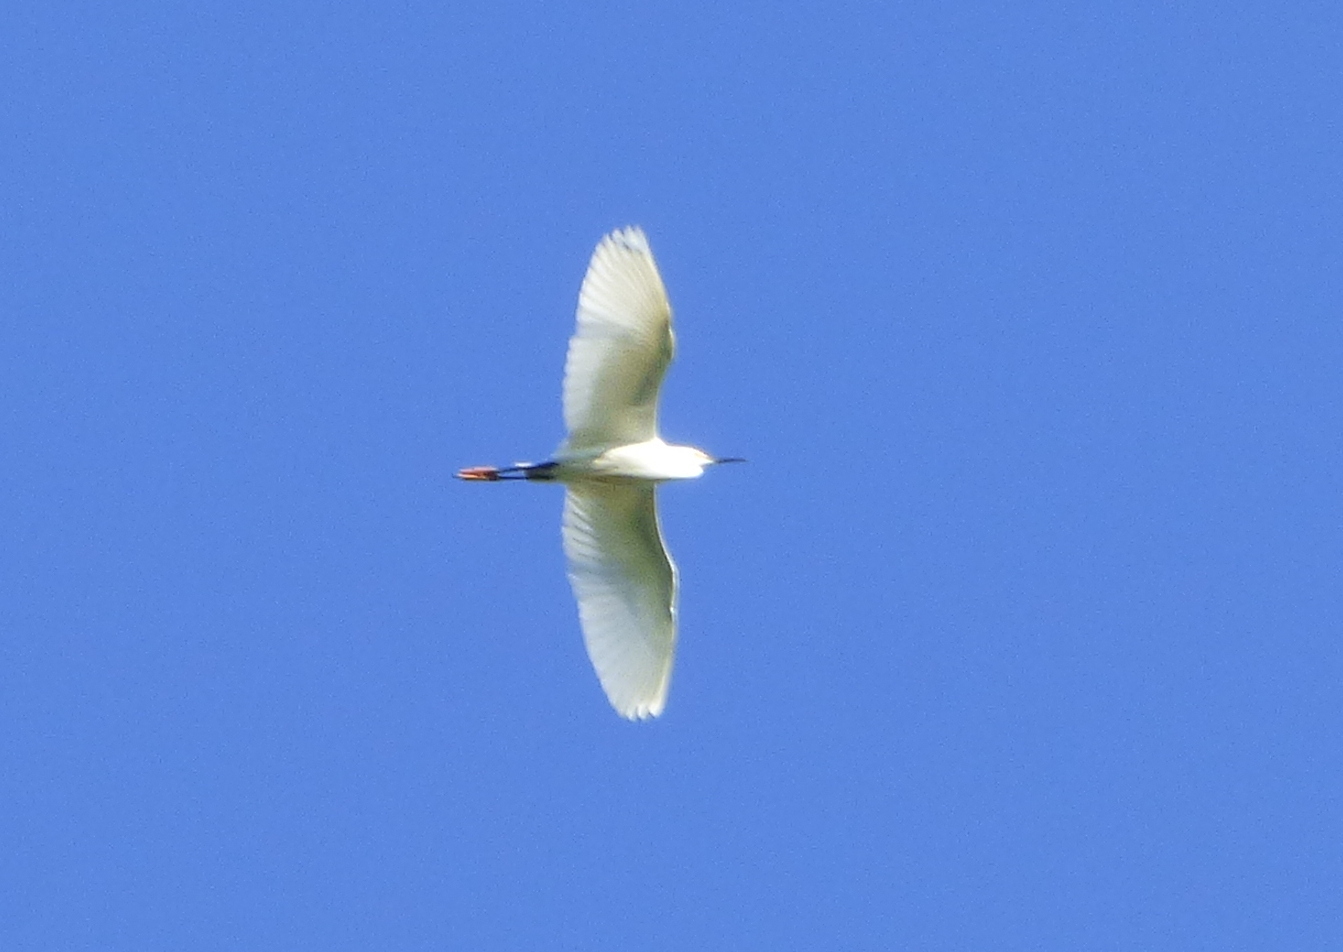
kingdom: Animalia
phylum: Chordata
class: Aves
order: Pelecaniformes
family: Ardeidae
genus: Egretta
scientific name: Egretta thula
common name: Snowy egret
